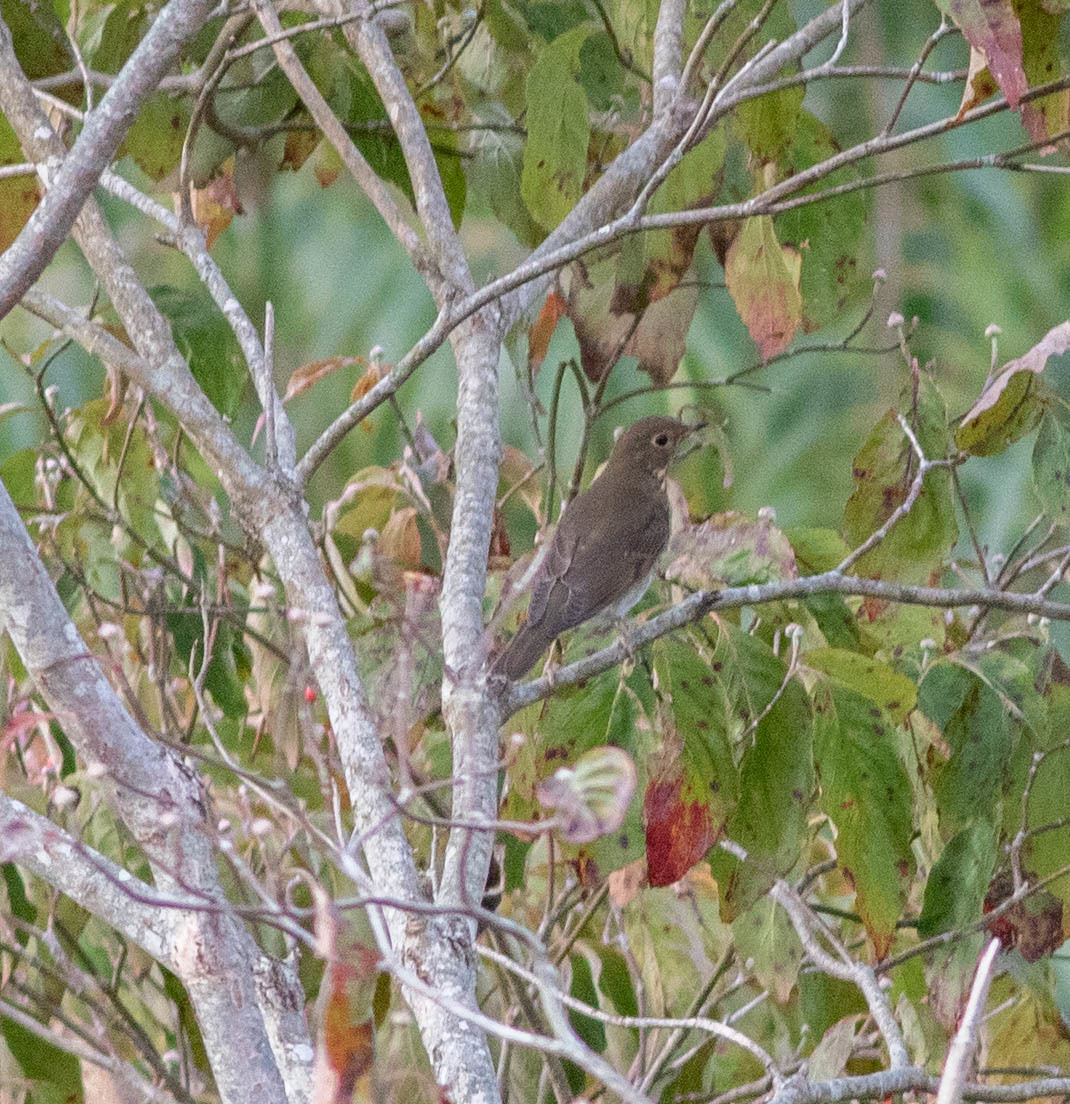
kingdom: Animalia
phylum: Chordata
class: Aves
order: Passeriformes
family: Turdidae
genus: Catharus
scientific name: Catharus ustulatus
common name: Swainson's thrush
